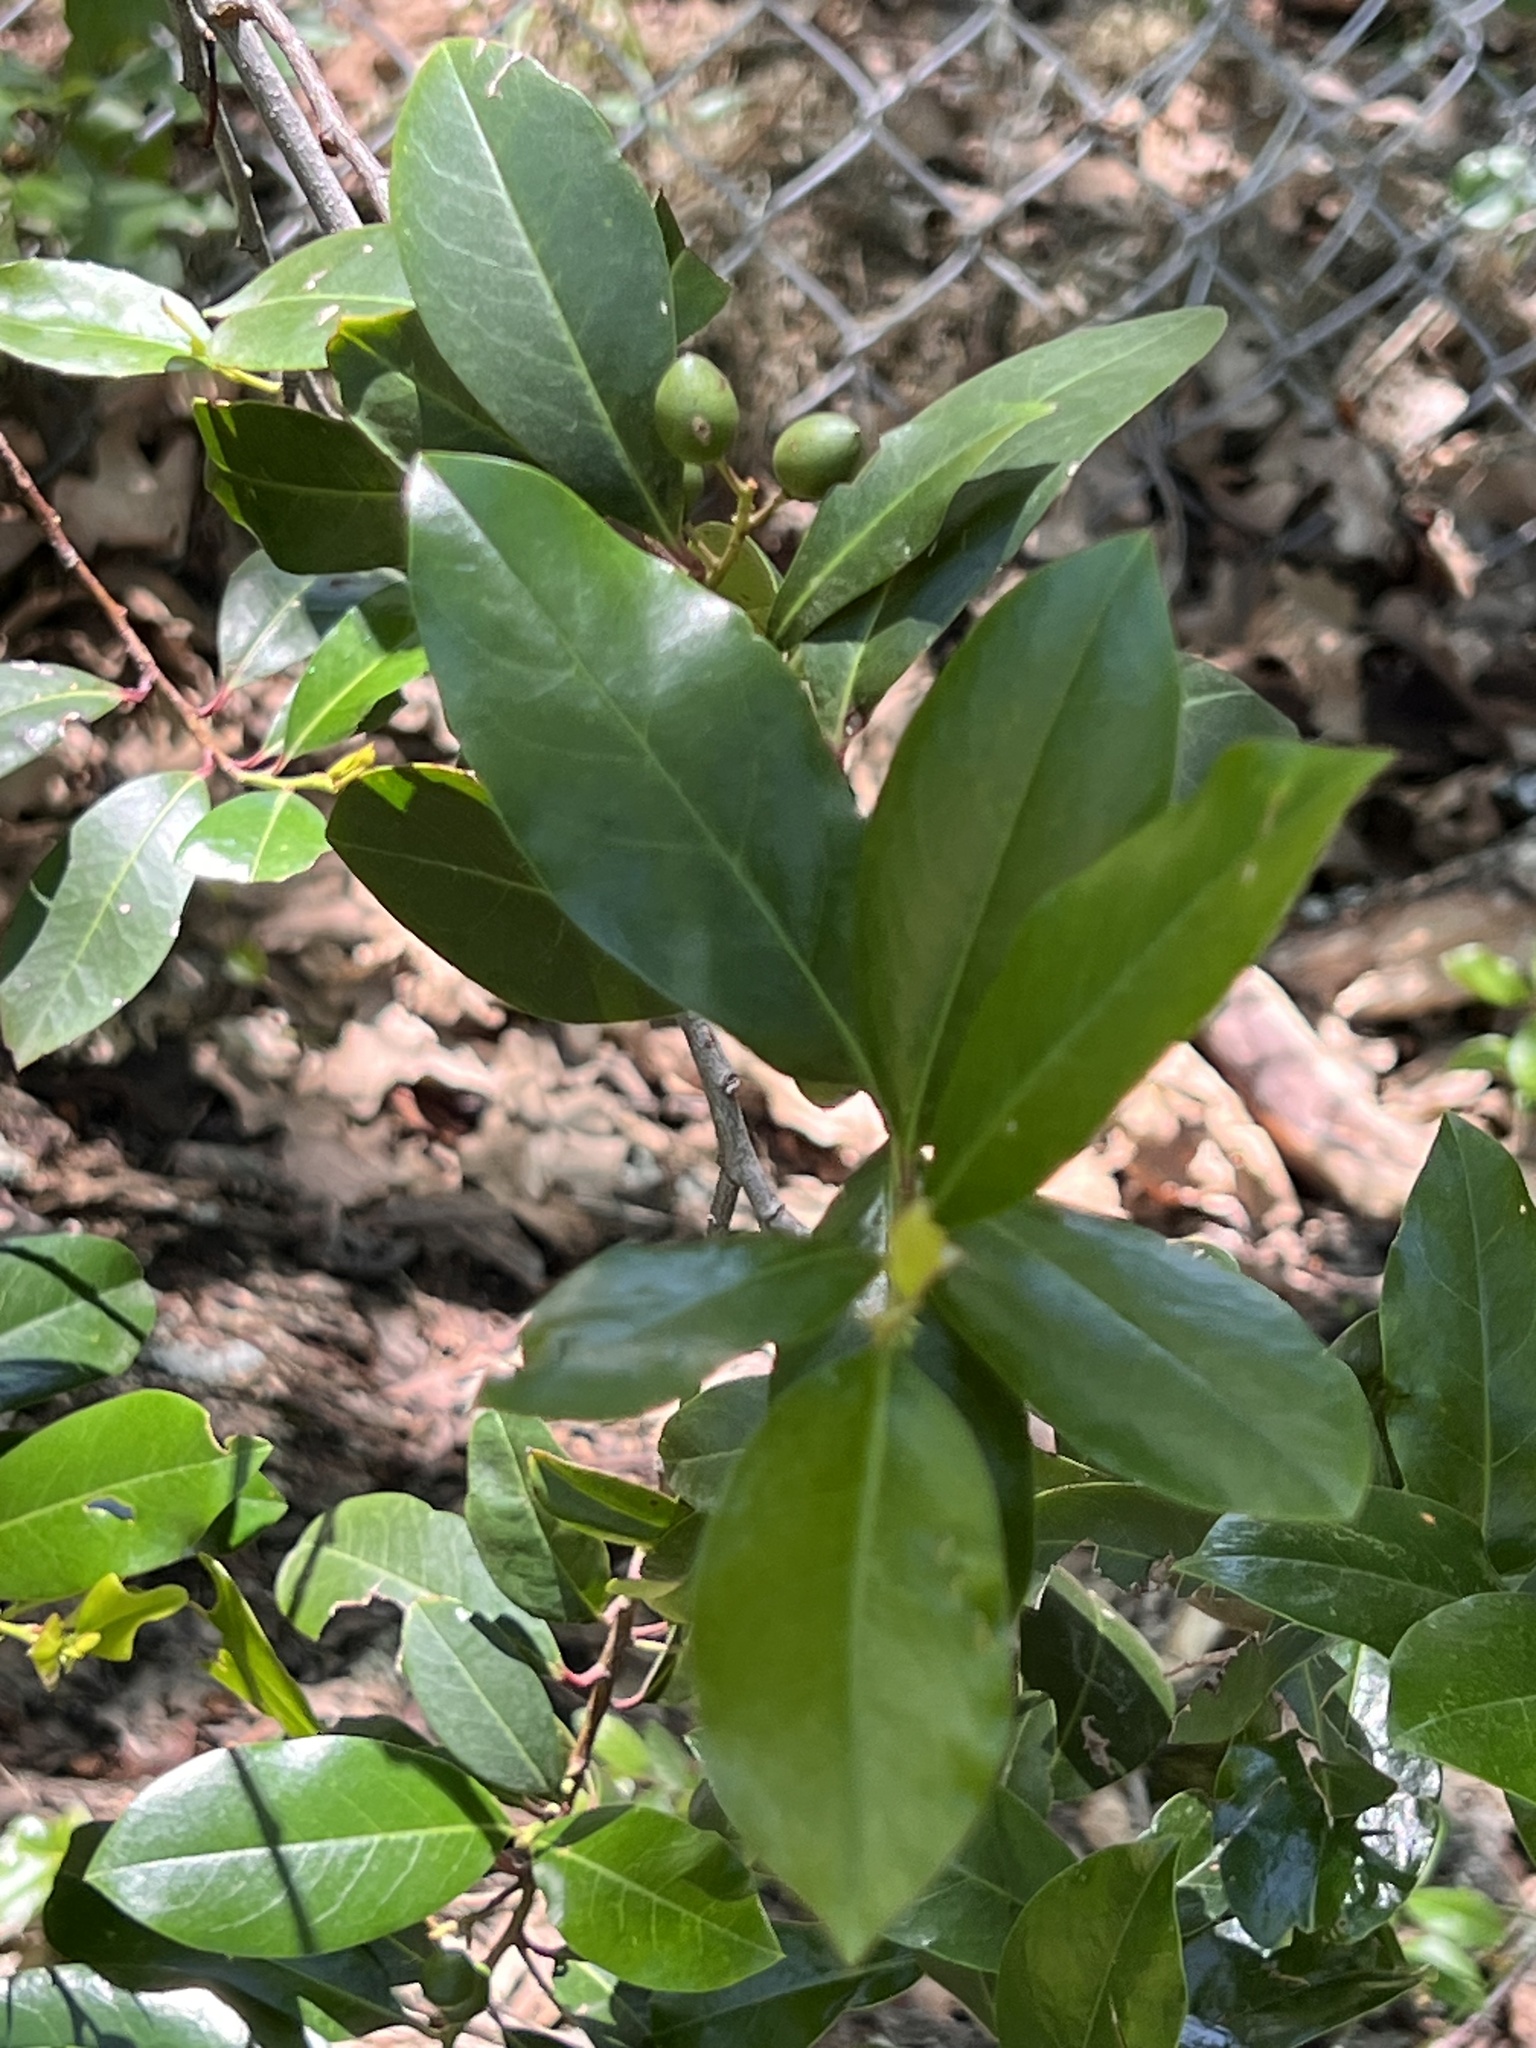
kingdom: Plantae
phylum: Tracheophyta
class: Magnoliopsida
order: Rosales
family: Rosaceae
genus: Prunus
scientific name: Prunus caroliniana
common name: Carolina laurel cherry
